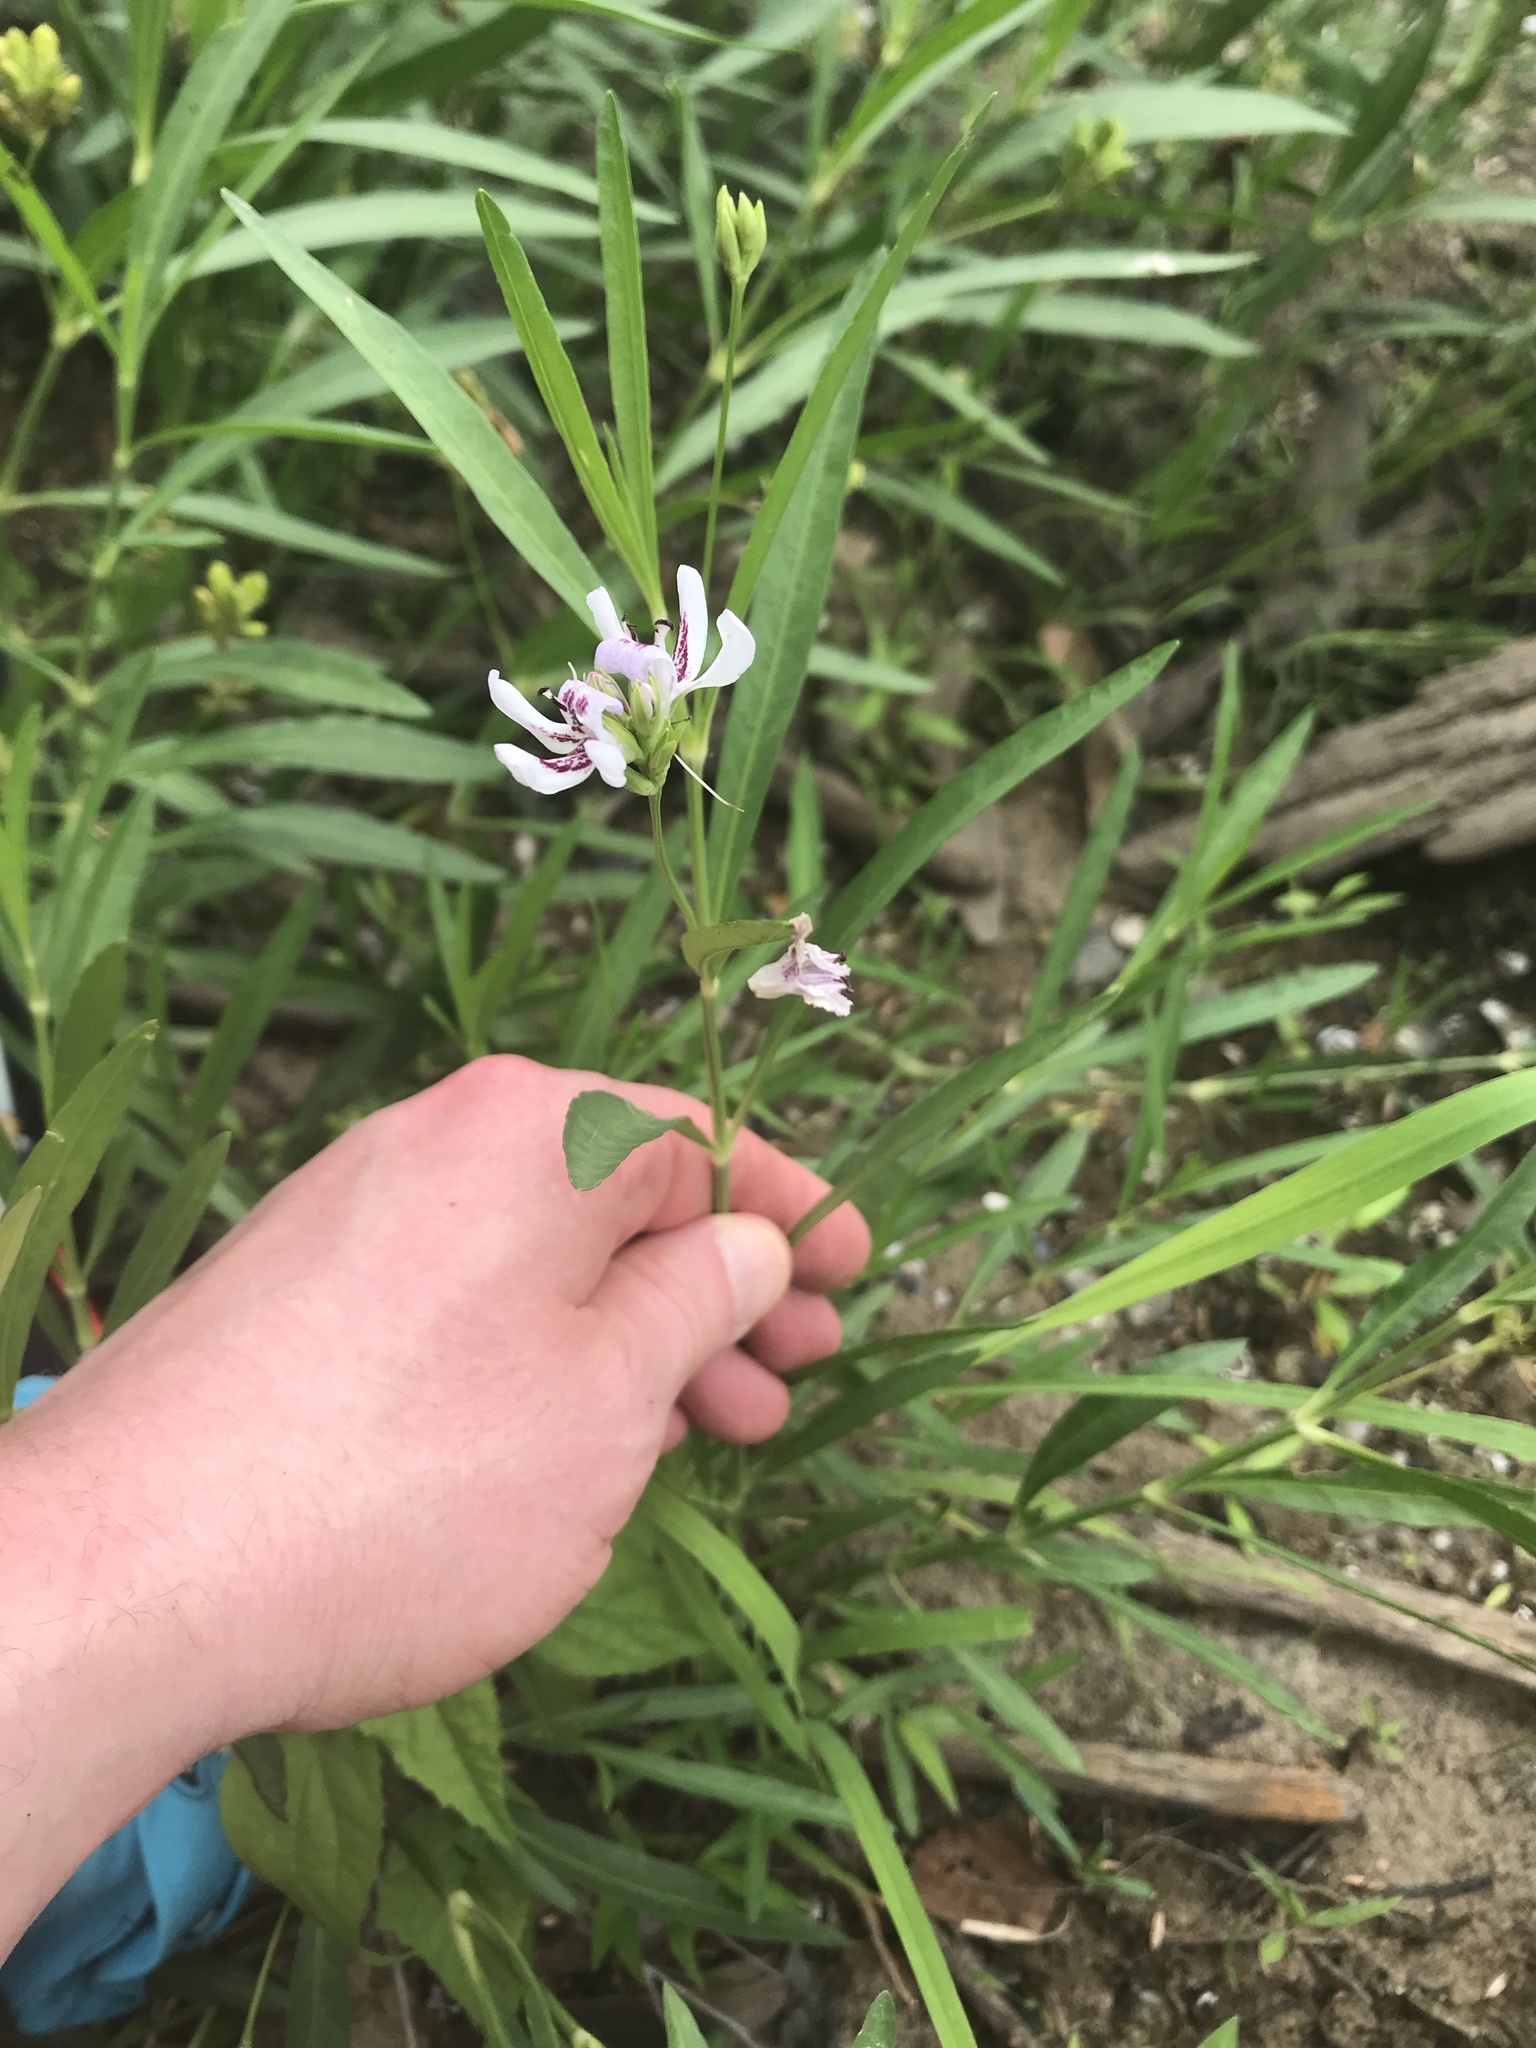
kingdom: Plantae
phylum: Tracheophyta
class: Magnoliopsida
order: Lamiales
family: Acanthaceae
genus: Dianthera
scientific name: Dianthera americana
